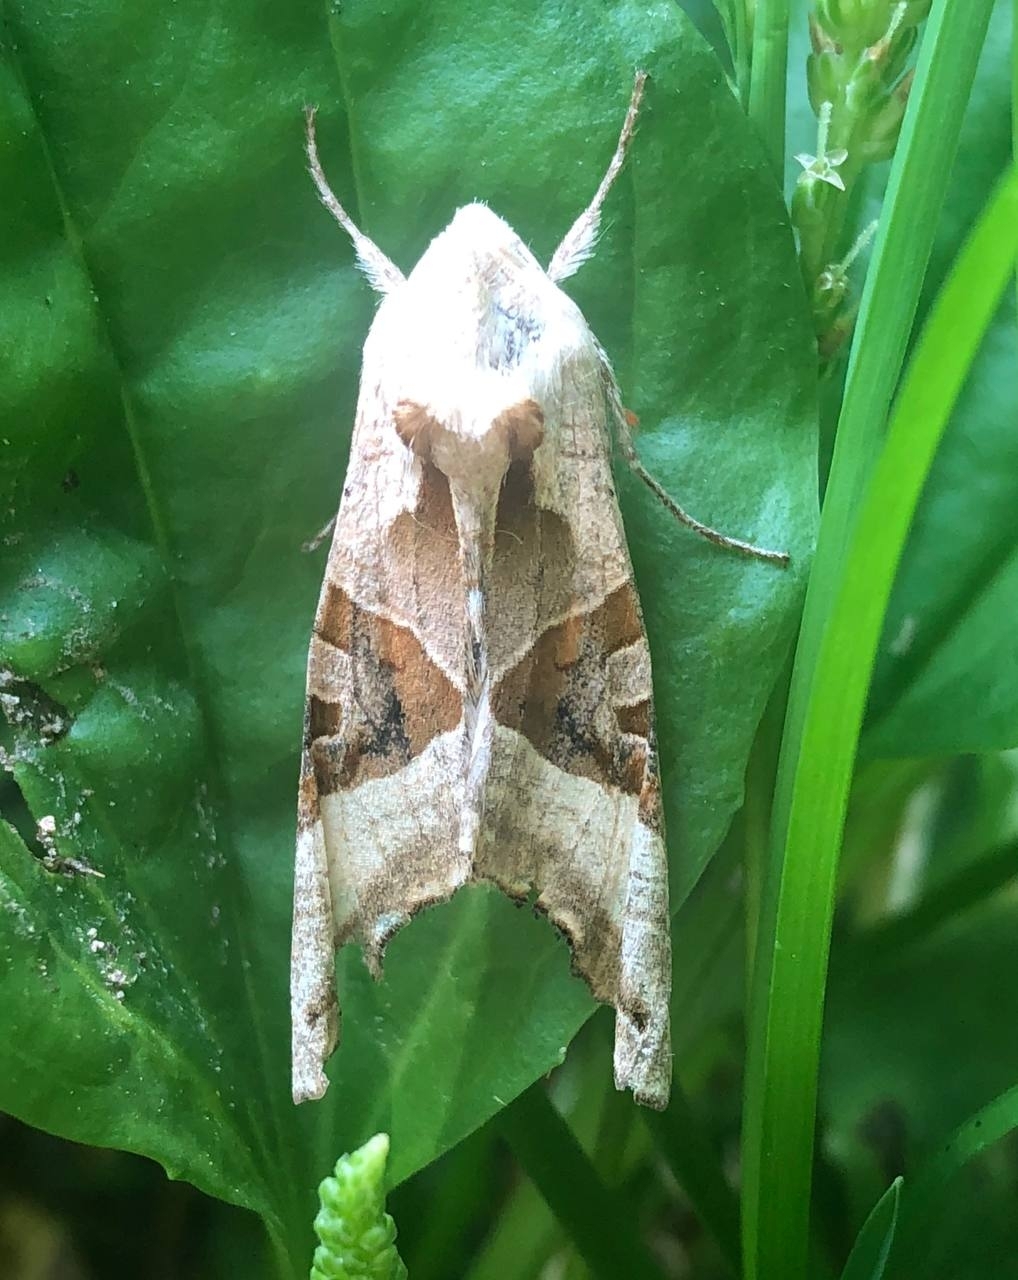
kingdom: Animalia
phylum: Arthropoda
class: Insecta
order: Lepidoptera
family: Noctuidae
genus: Phlogophora
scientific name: Phlogophora meticulosa
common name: Angle shades
